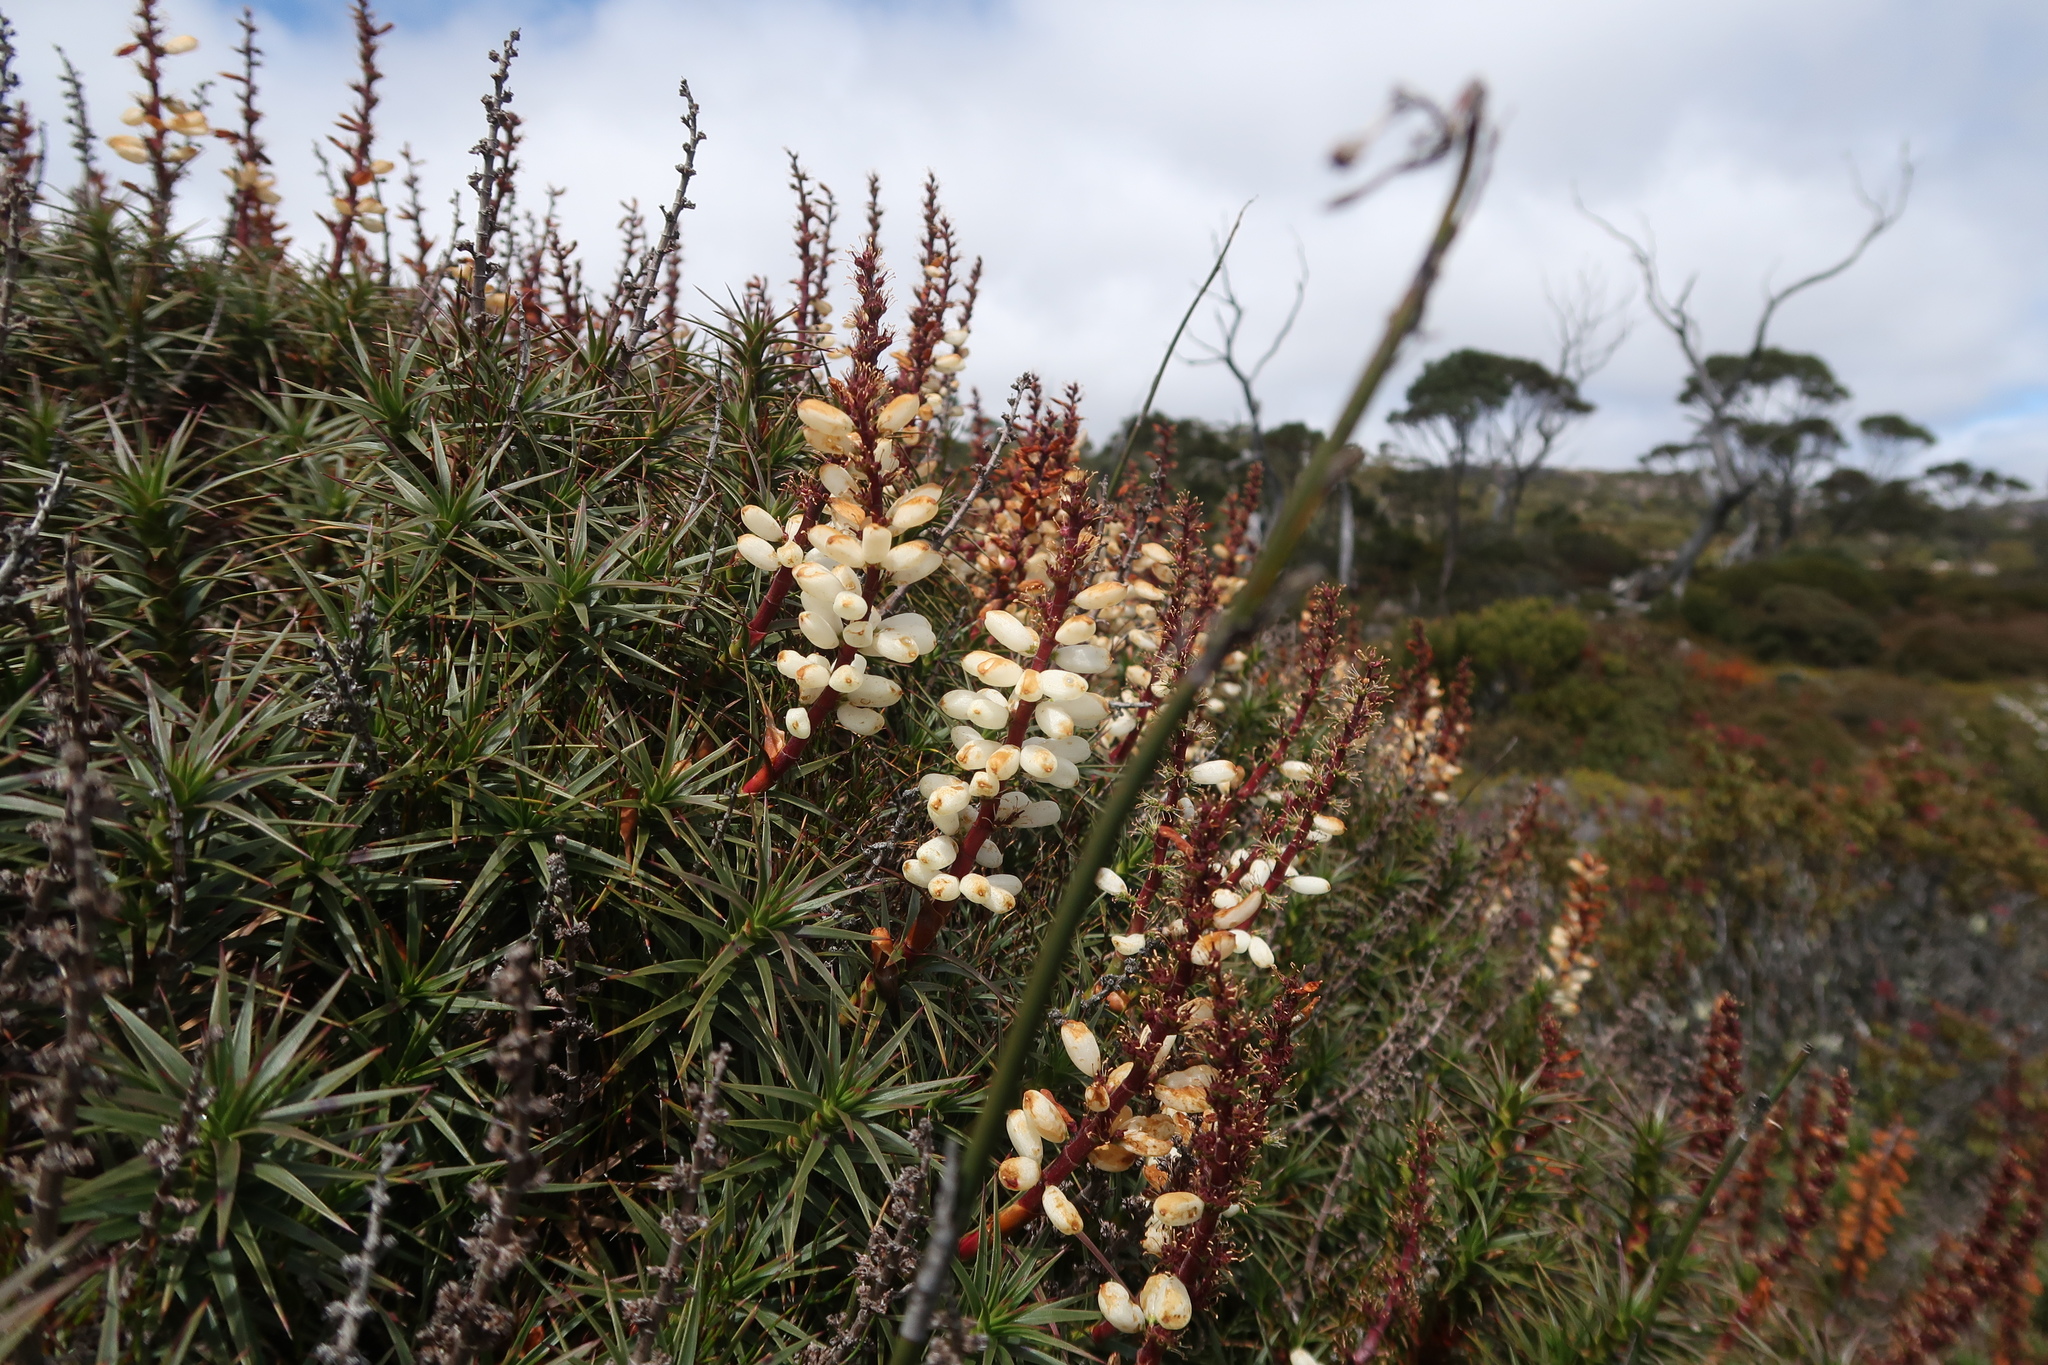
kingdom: Plantae
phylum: Tracheophyta
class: Magnoliopsida
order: Ericales
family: Ericaceae
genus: Dracophyllum
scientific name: Dracophyllum persistentifolium
